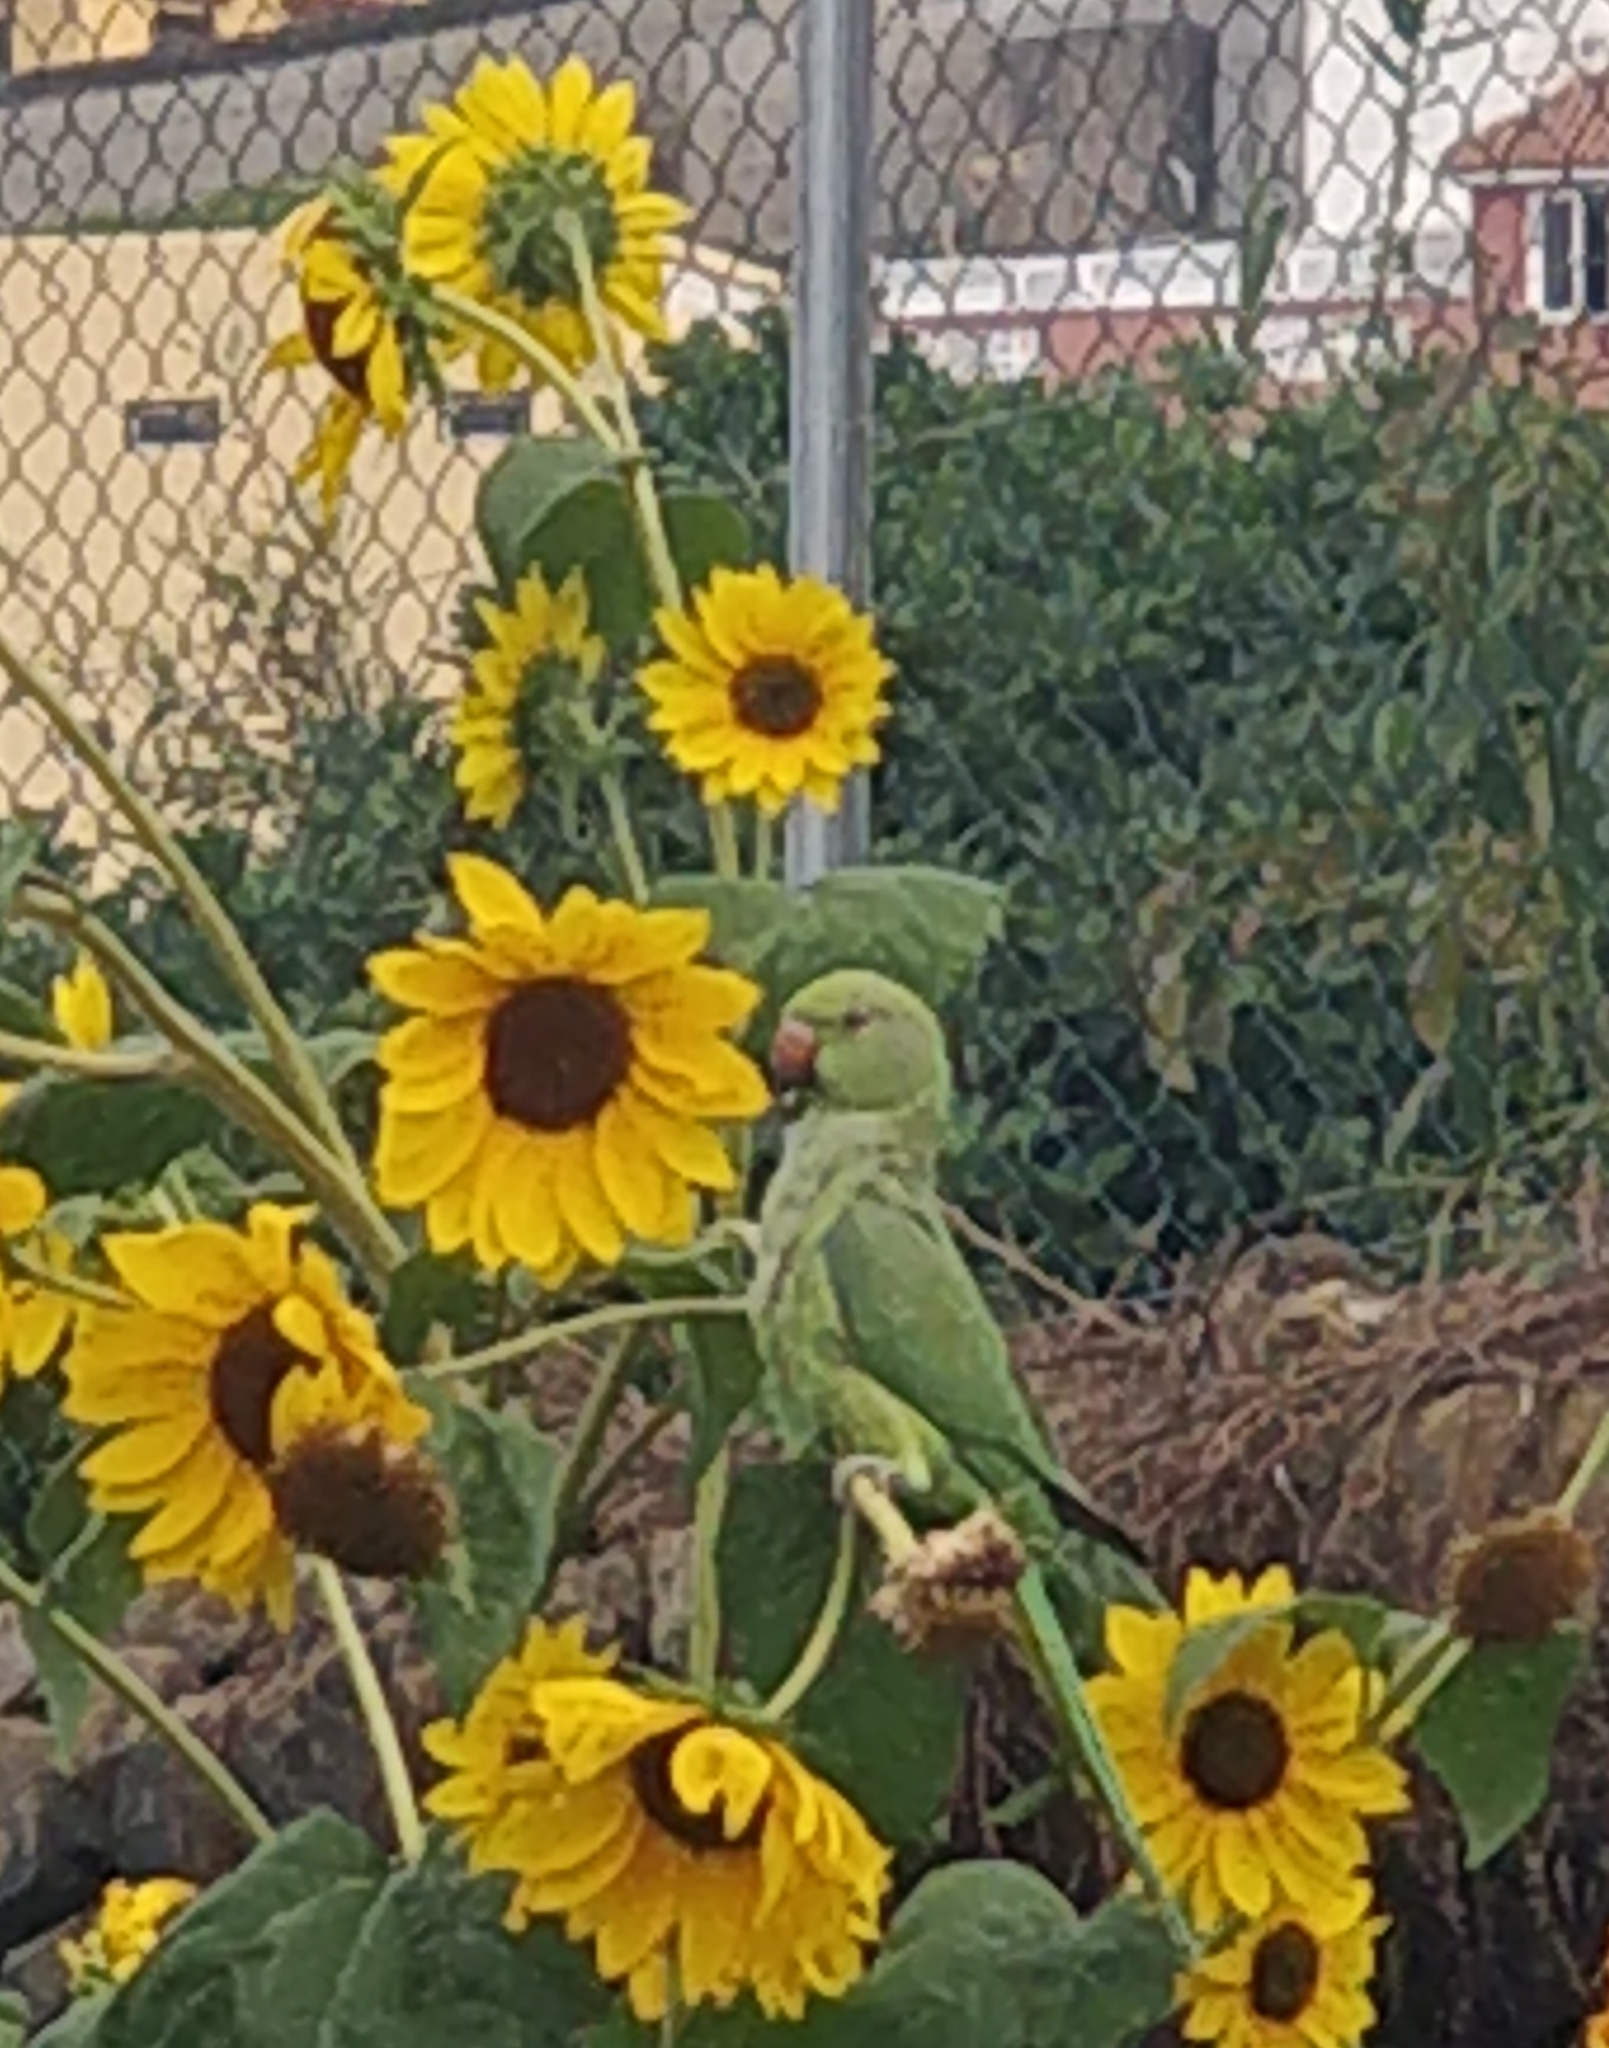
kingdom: Animalia
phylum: Chordata
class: Aves
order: Psittaciformes
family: Psittacidae
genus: Psittacula
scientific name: Psittacula krameri
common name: Rose-ringed parakeet
